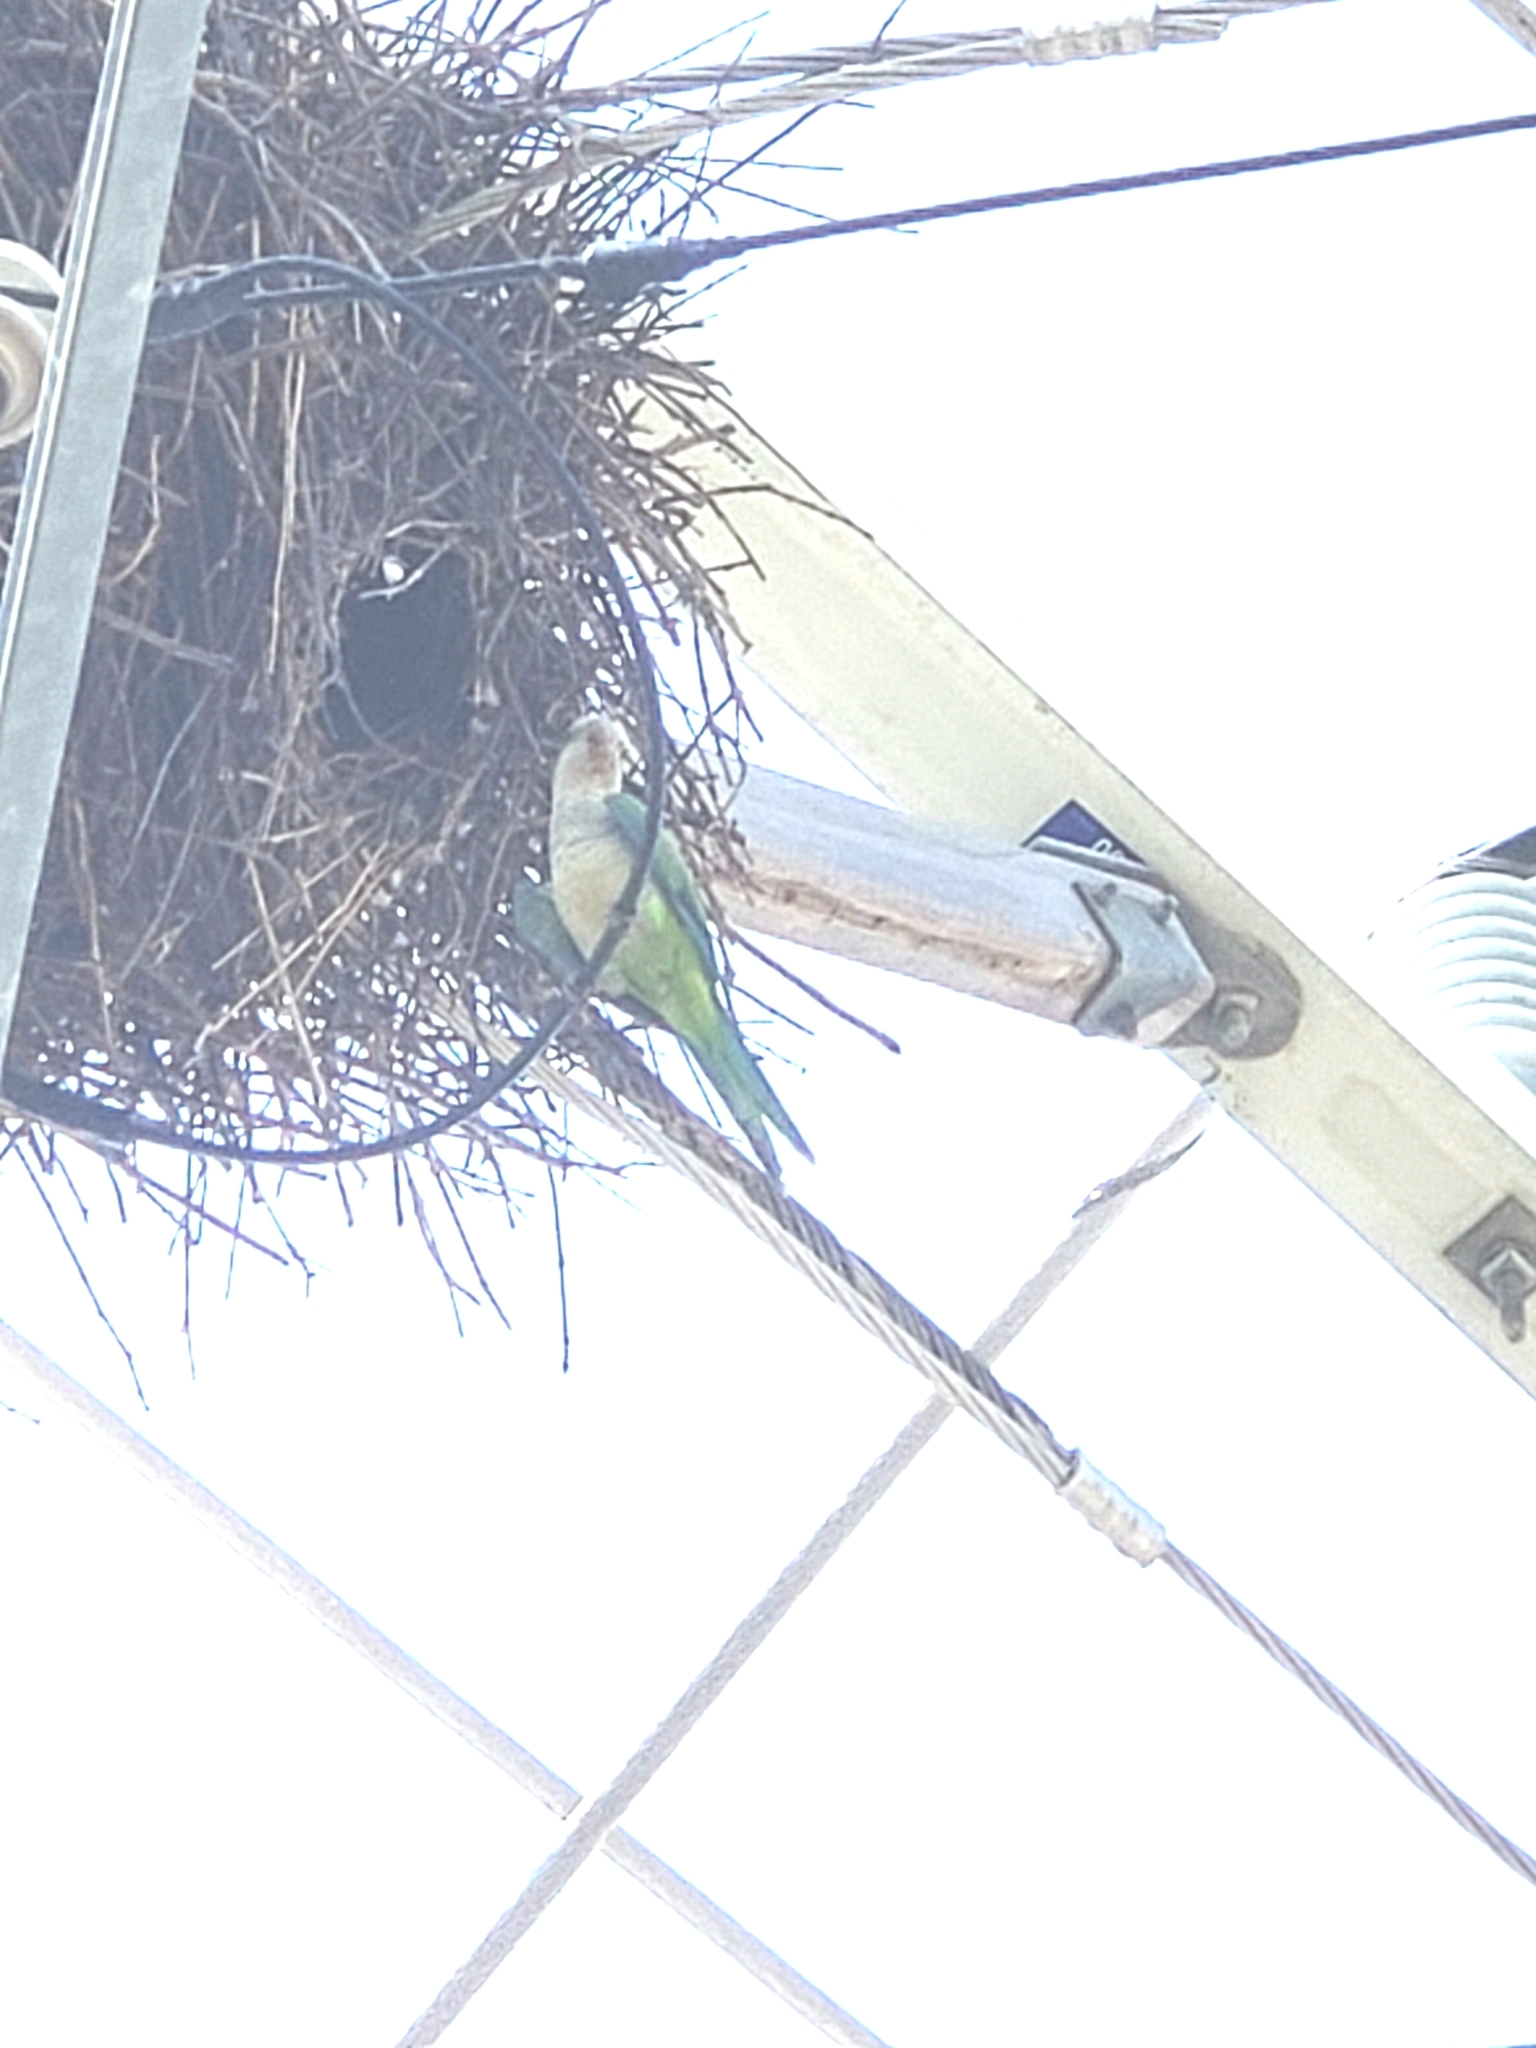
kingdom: Animalia
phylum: Chordata
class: Aves
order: Psittaciformes
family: Psittacidae
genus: Myiopsitta
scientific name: Myiopsitta monachus
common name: Monk parakeet
